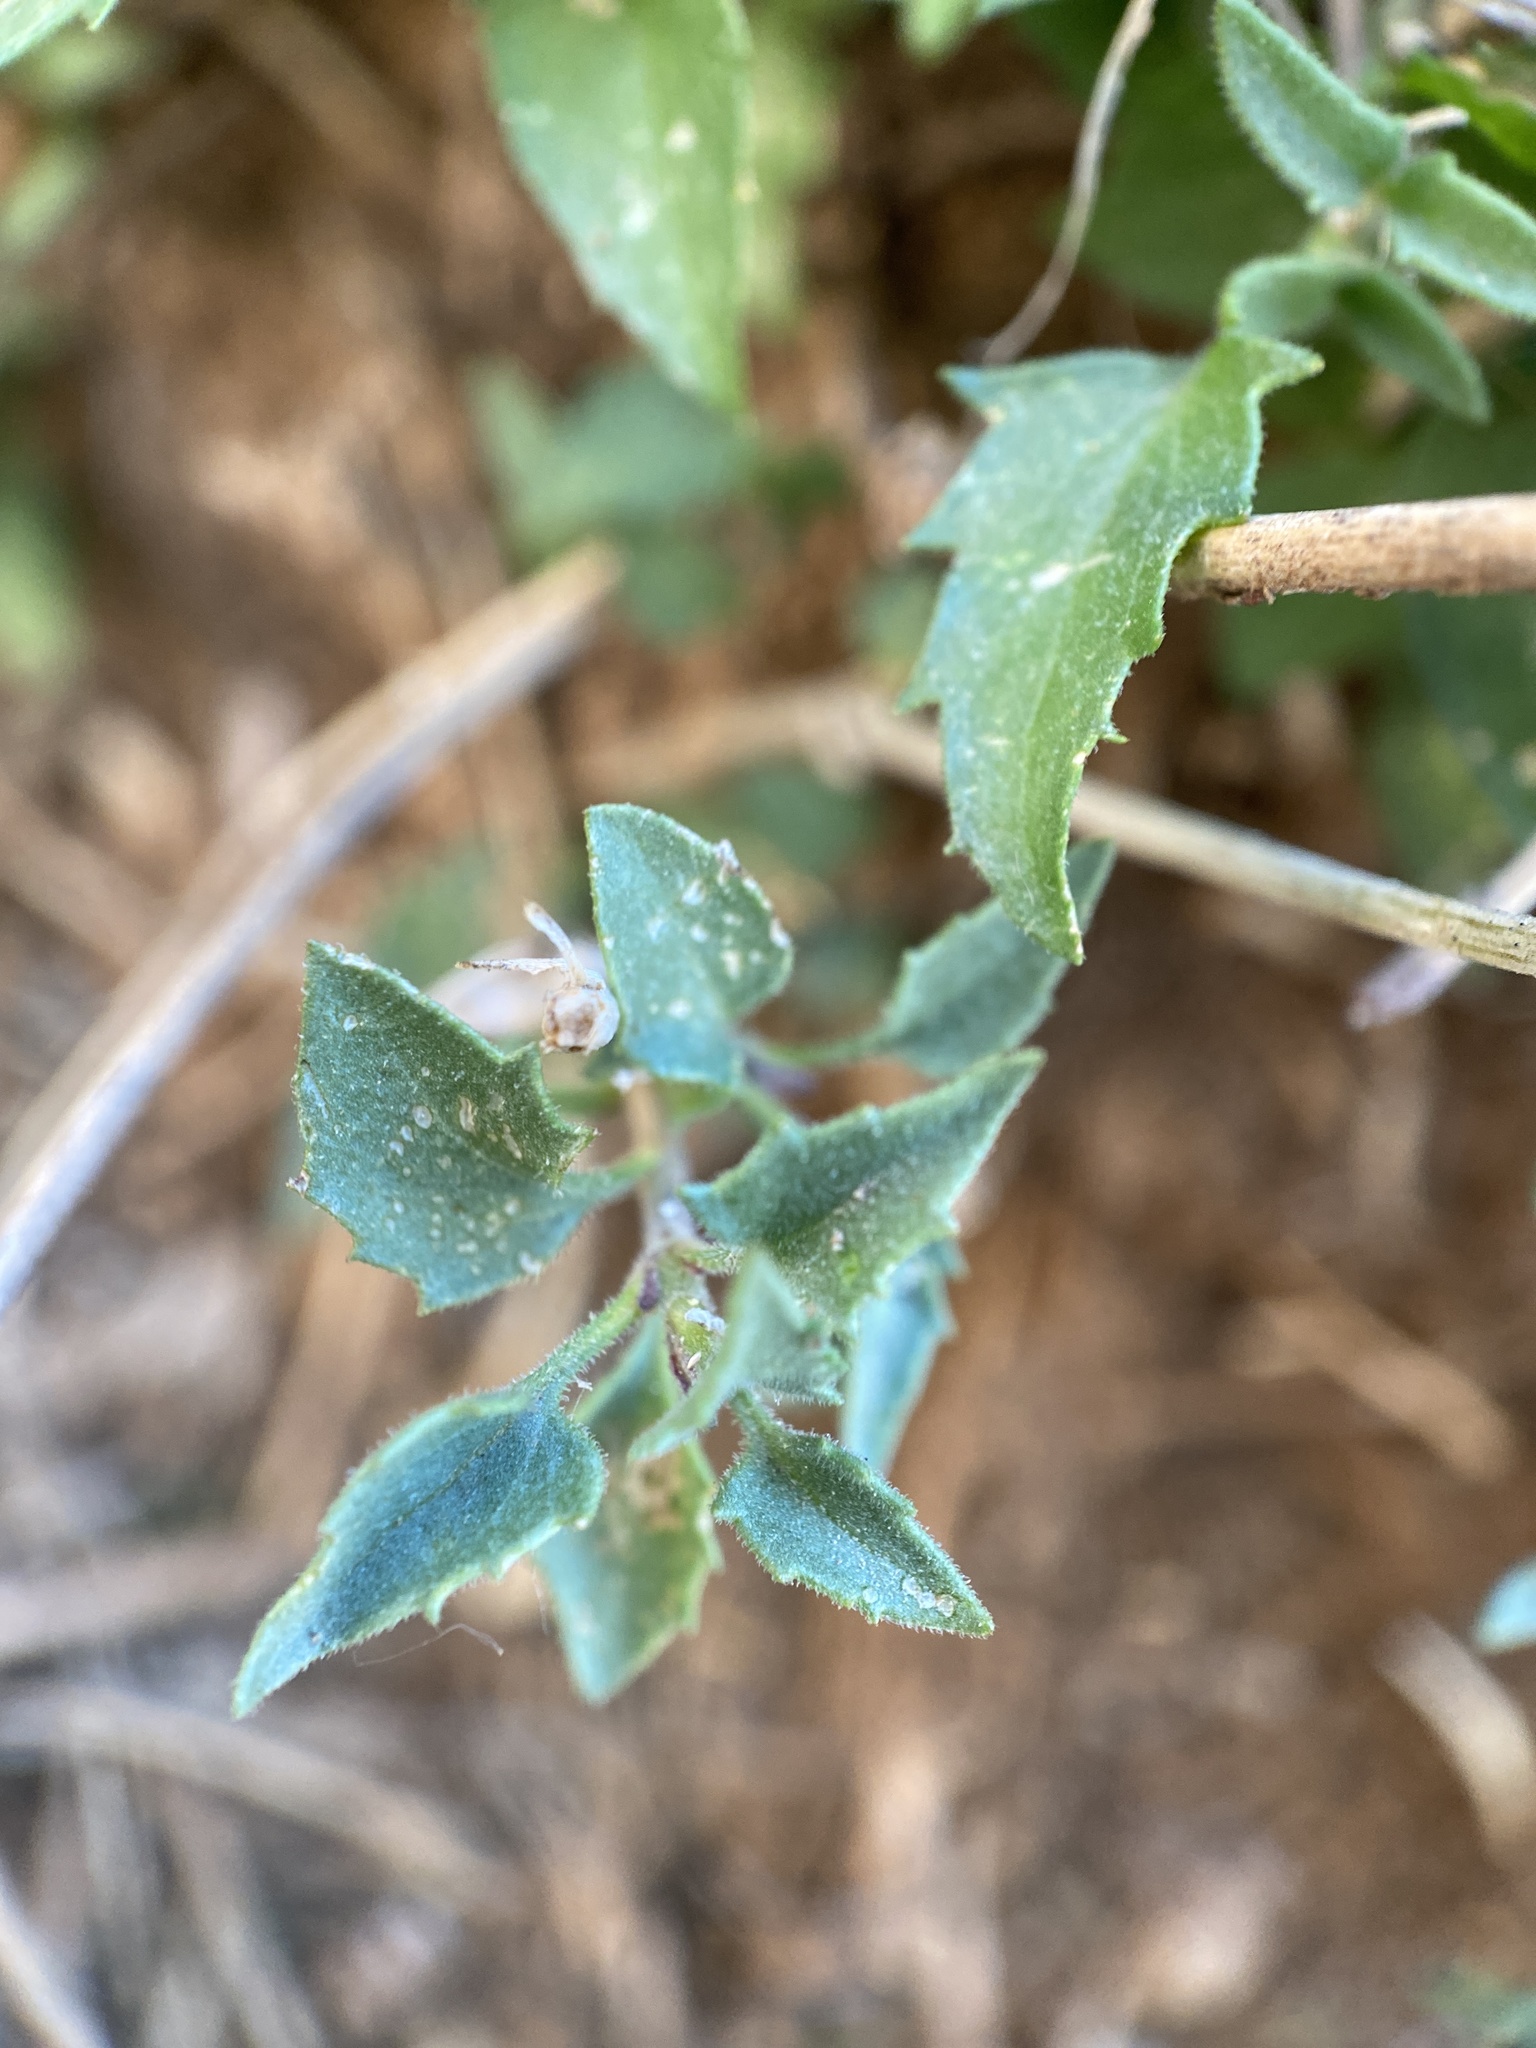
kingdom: Plantae
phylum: Tracheophyta
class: Magnoliopsida
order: Asterales
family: Asteraceae
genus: Brickellia
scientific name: Brickellia coulteri
